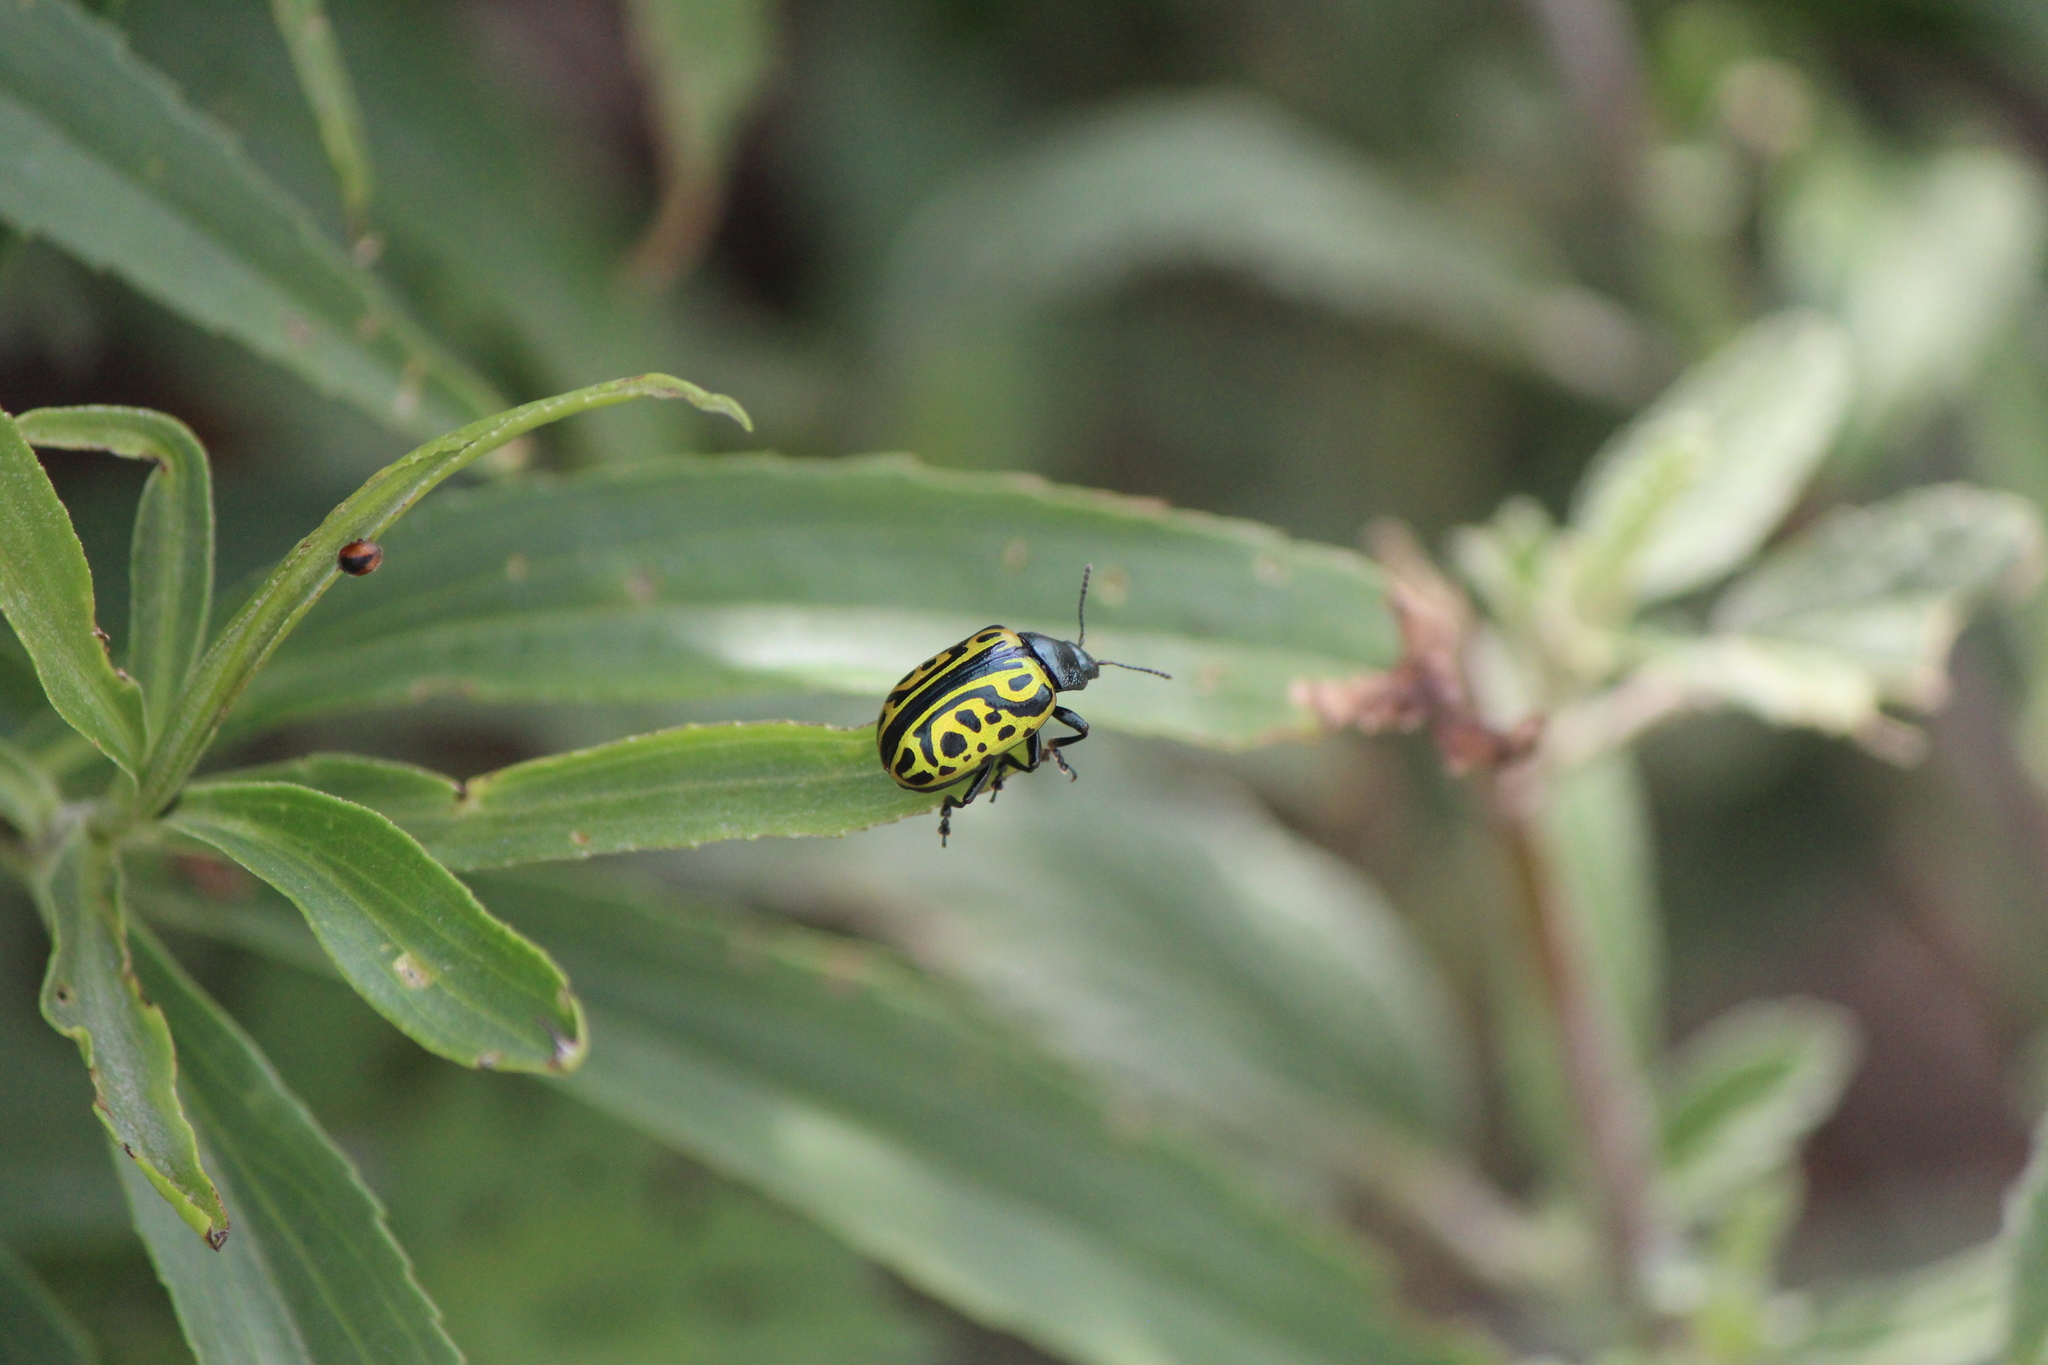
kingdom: Animalia
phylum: Arthropoda
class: Insecta
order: Coleoptera
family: Chrysomelidae
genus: Calligrapha
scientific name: Calligrapha mexicana
